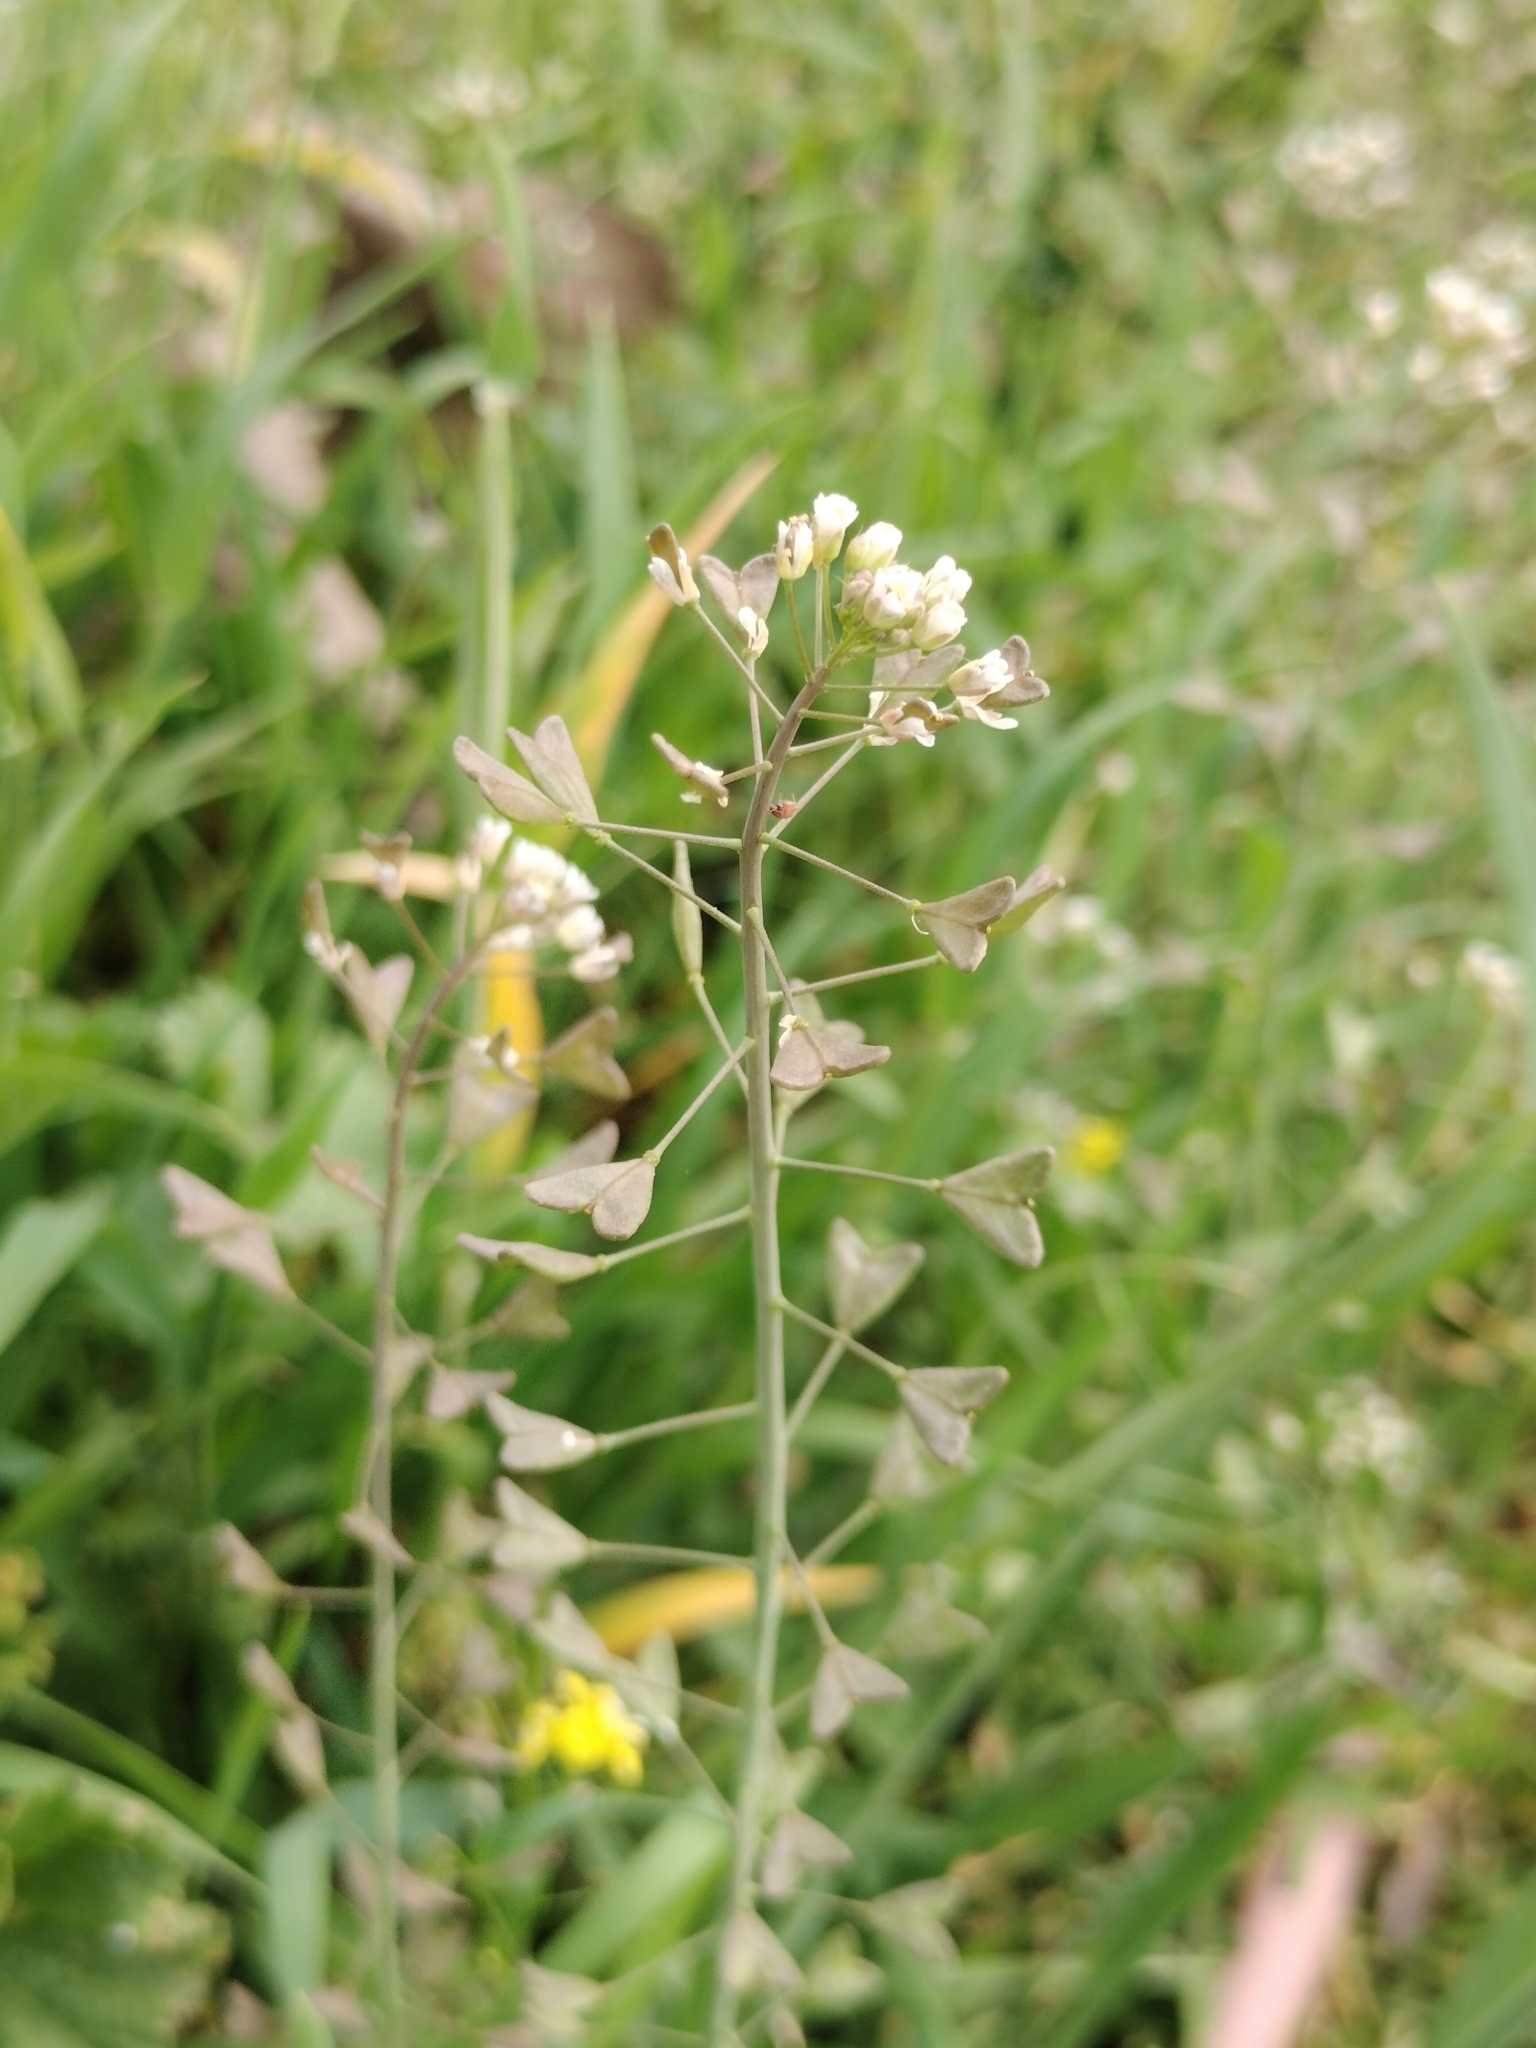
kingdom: Plantae
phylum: Tracheophyta
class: Magnoliopsida
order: Brassicales
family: Brassicaceae
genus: Capsella
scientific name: Capsella bursa-pastoris
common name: Shepherd's purse
